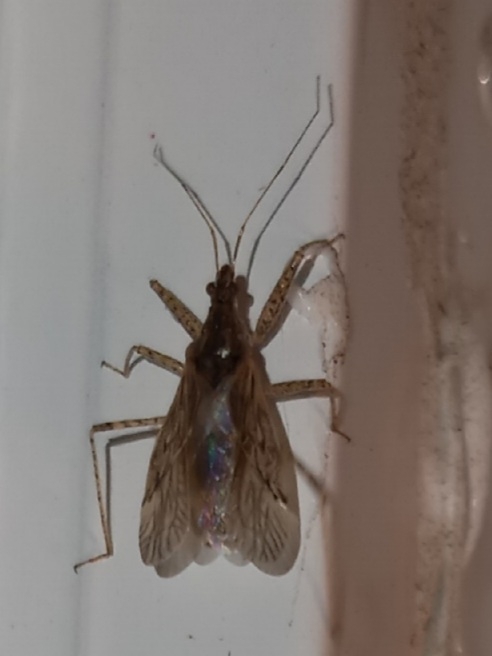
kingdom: Animalia
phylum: Arthropoda
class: Insecta
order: Hemiptera
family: Nabidae
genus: Nabis
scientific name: Nabis roseipennis
